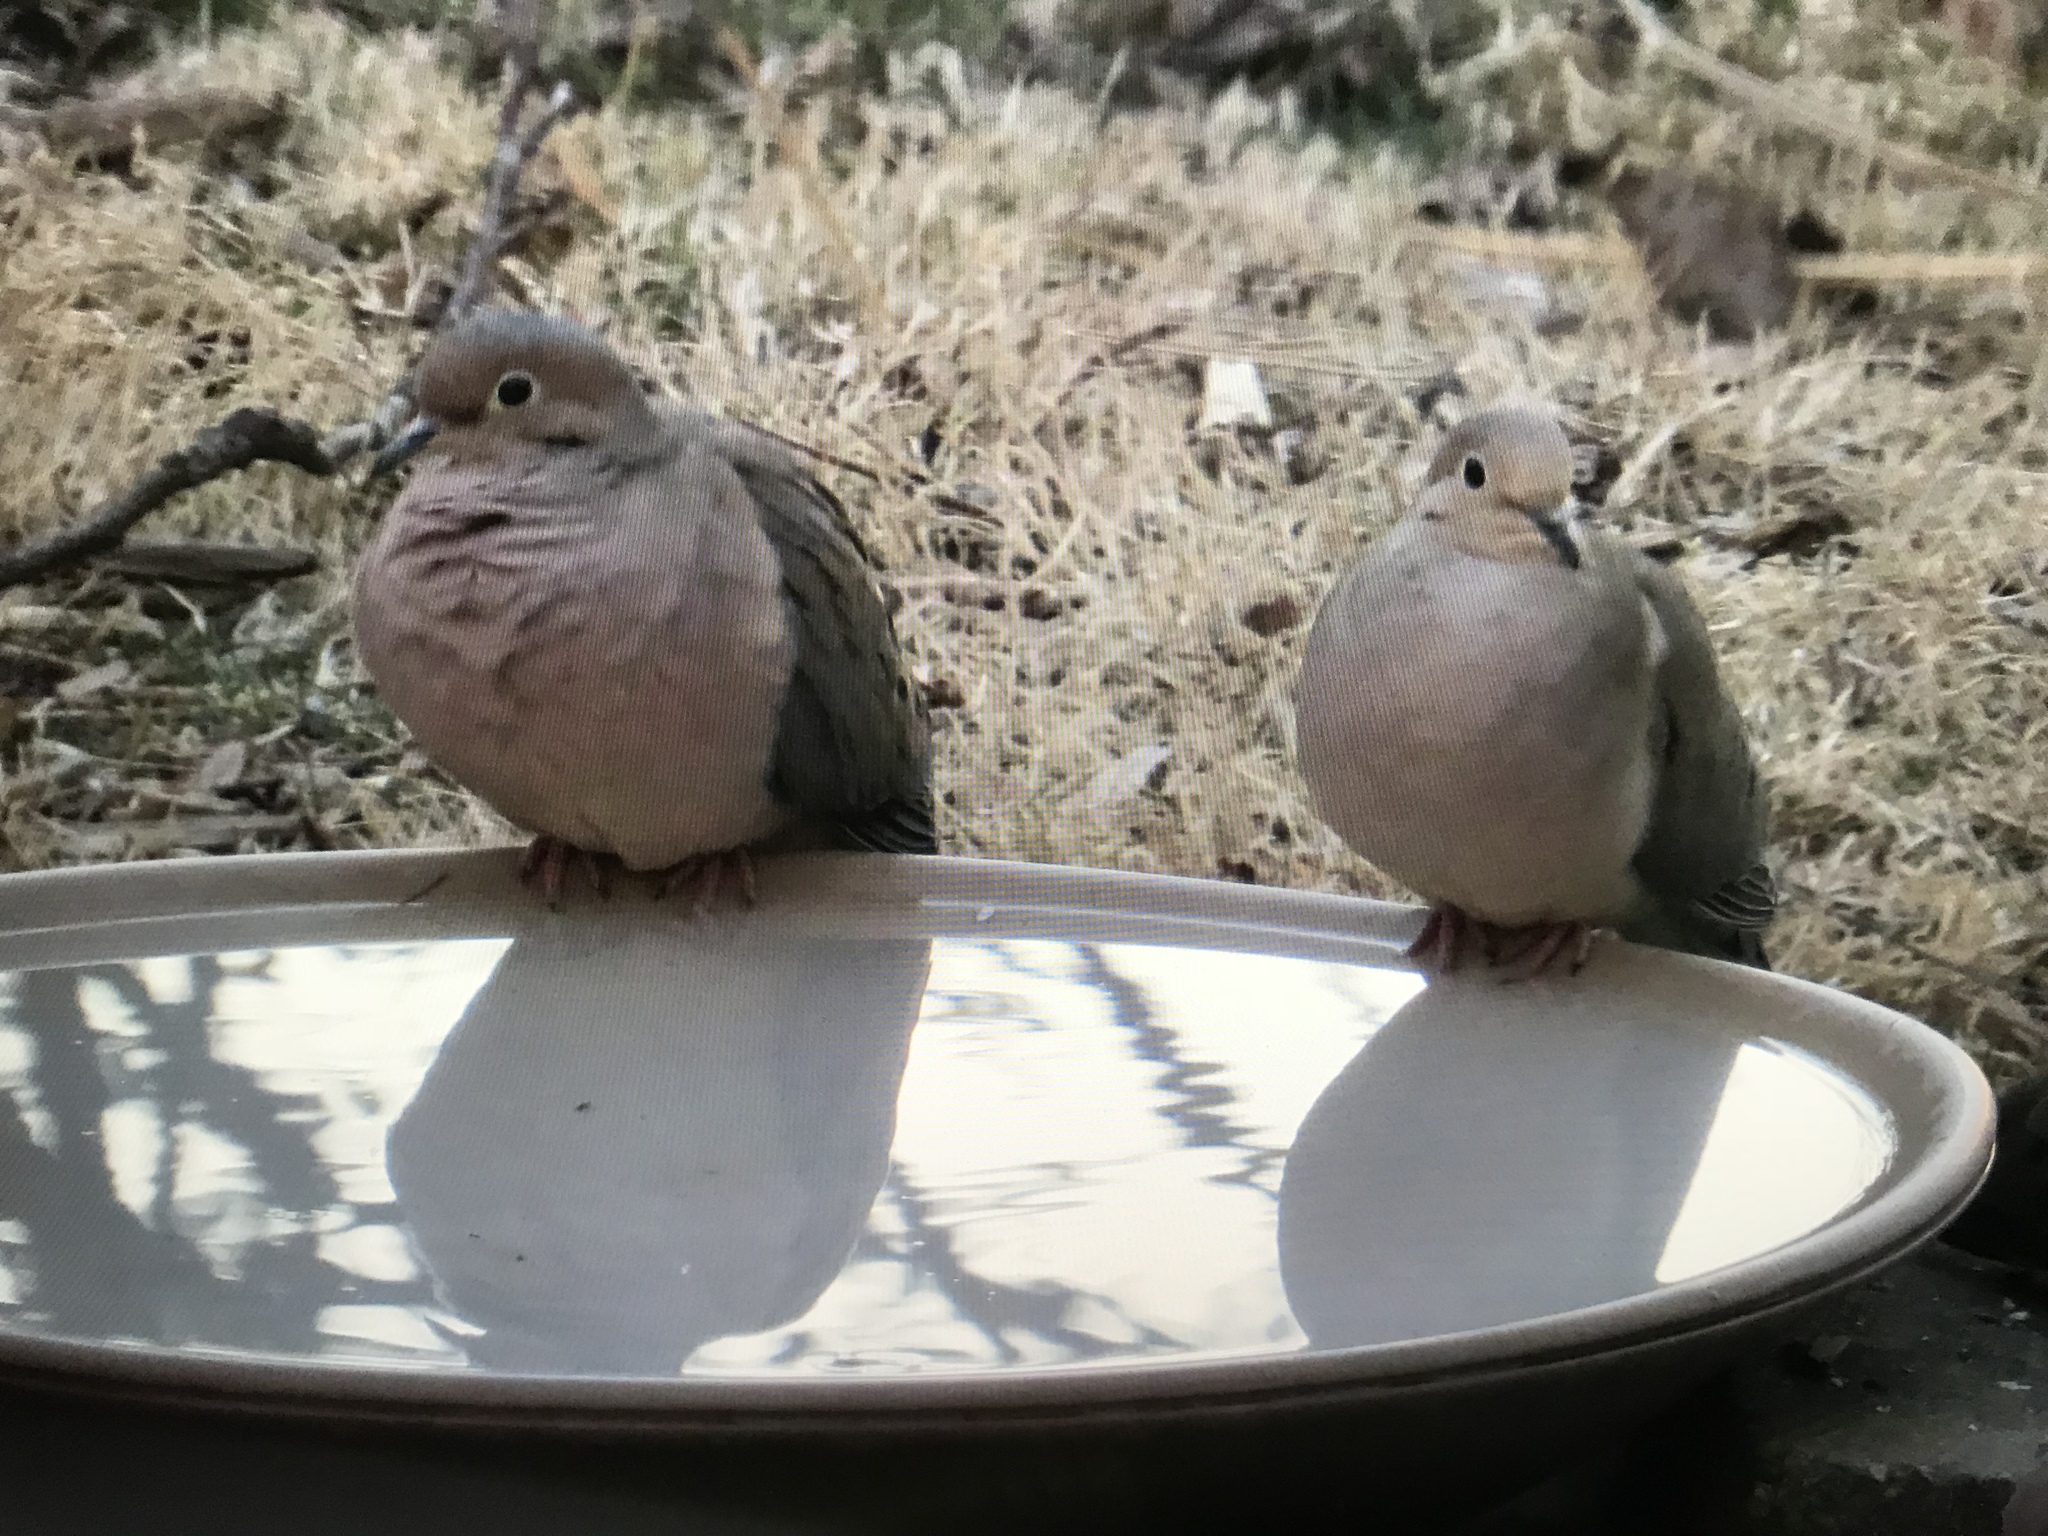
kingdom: Animalia
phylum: Chordata
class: Aves
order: Columbiformes
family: Columbidae
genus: Zenaida
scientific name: Zenaida macroura
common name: Mourning dove
